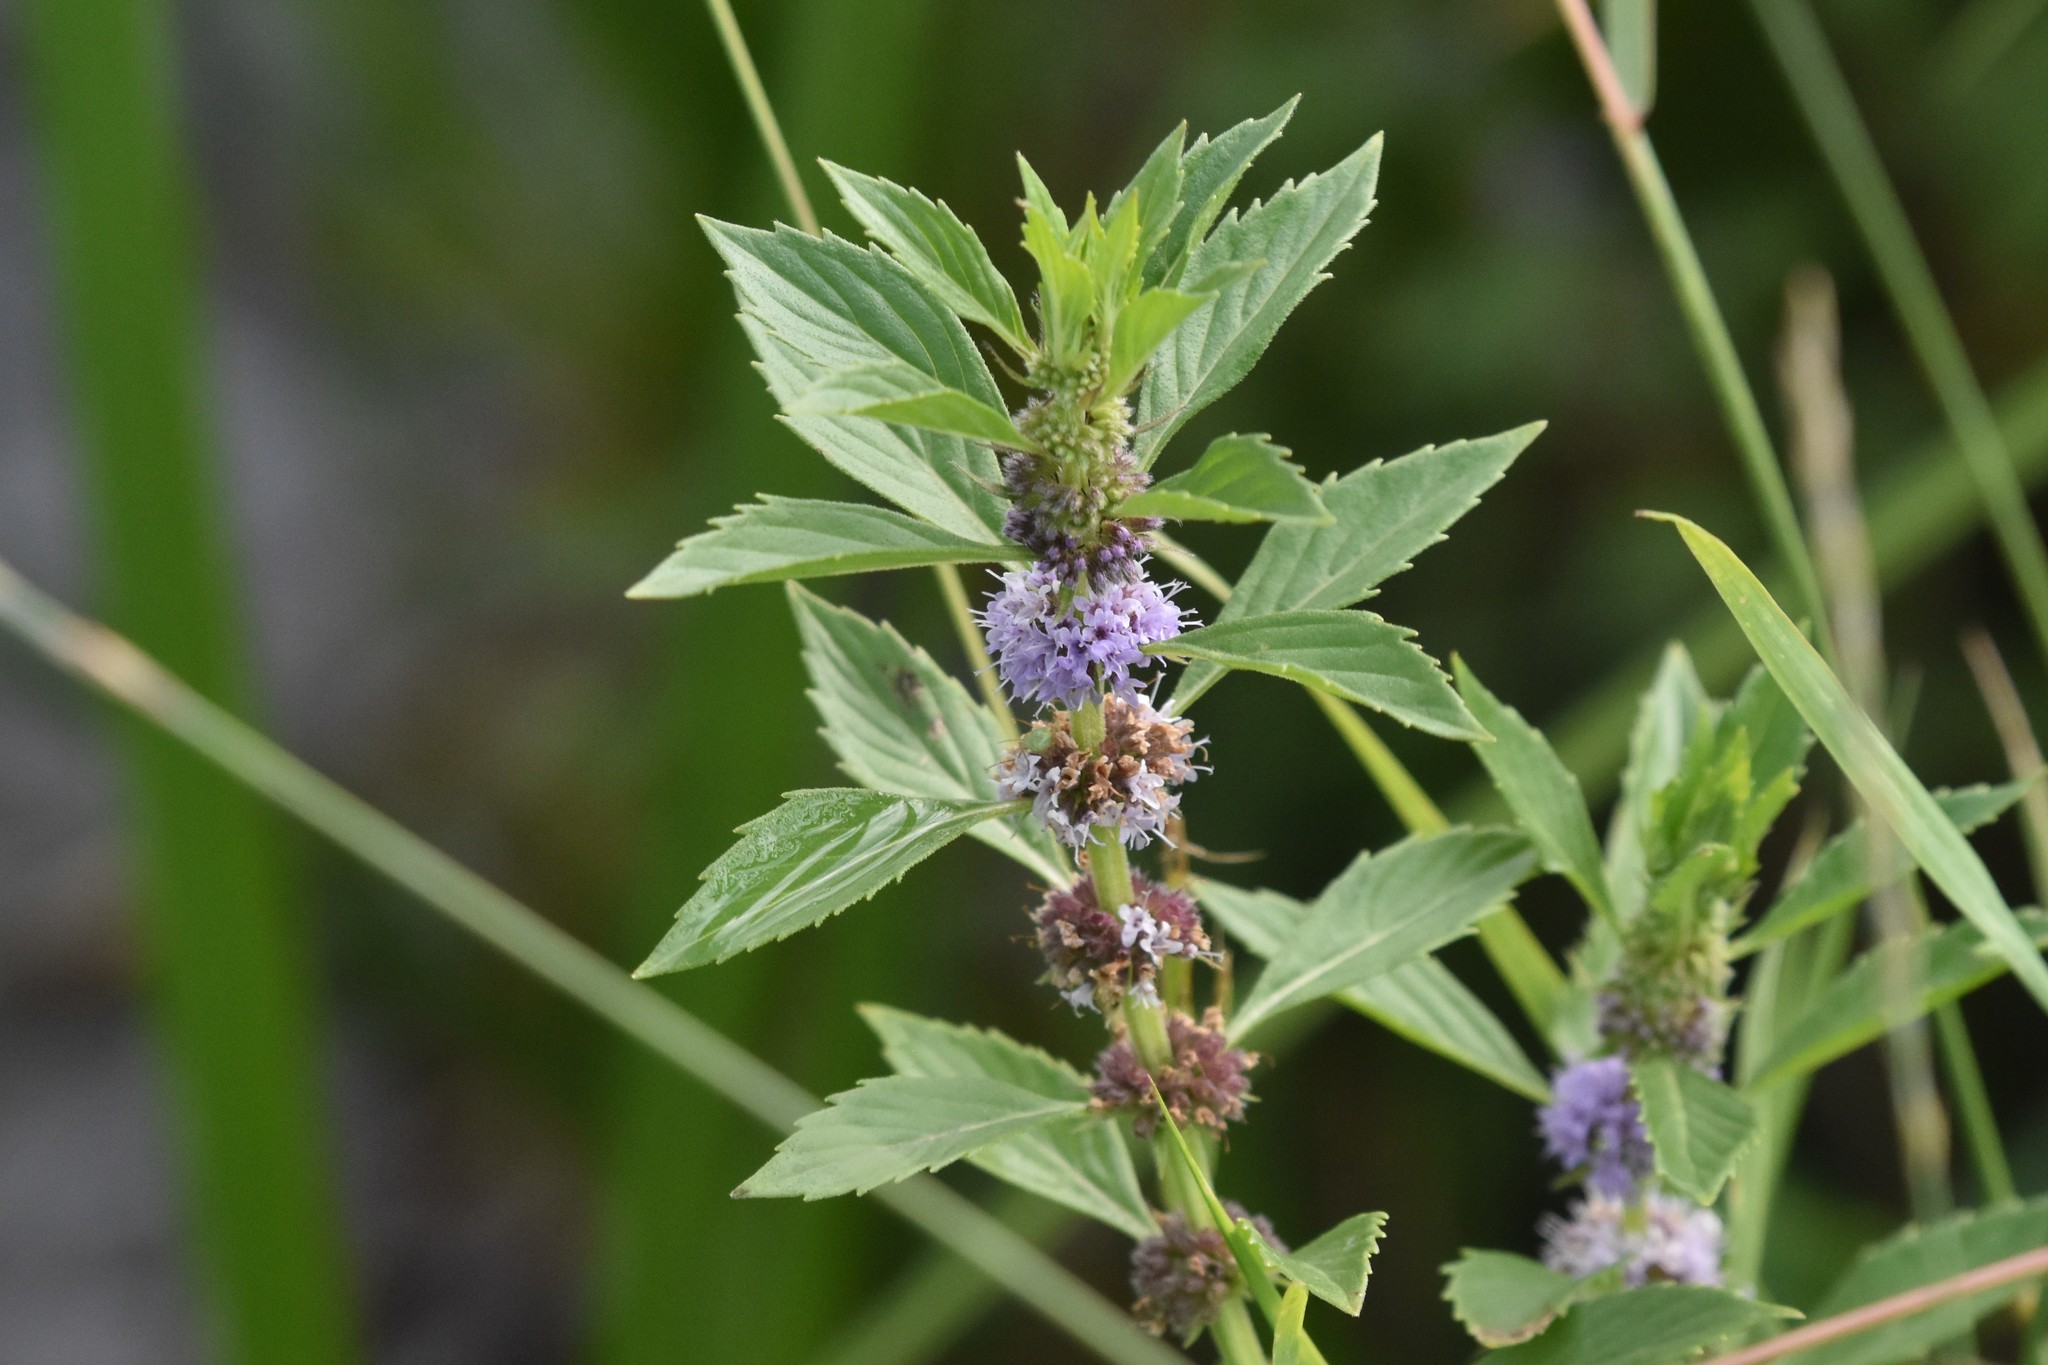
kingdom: Plantae
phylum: Tracheophyta
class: Magnoliopsida
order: Lamiales
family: Lamiaceae
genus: Mentha
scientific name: Mentha canadensis
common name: American corn mint
